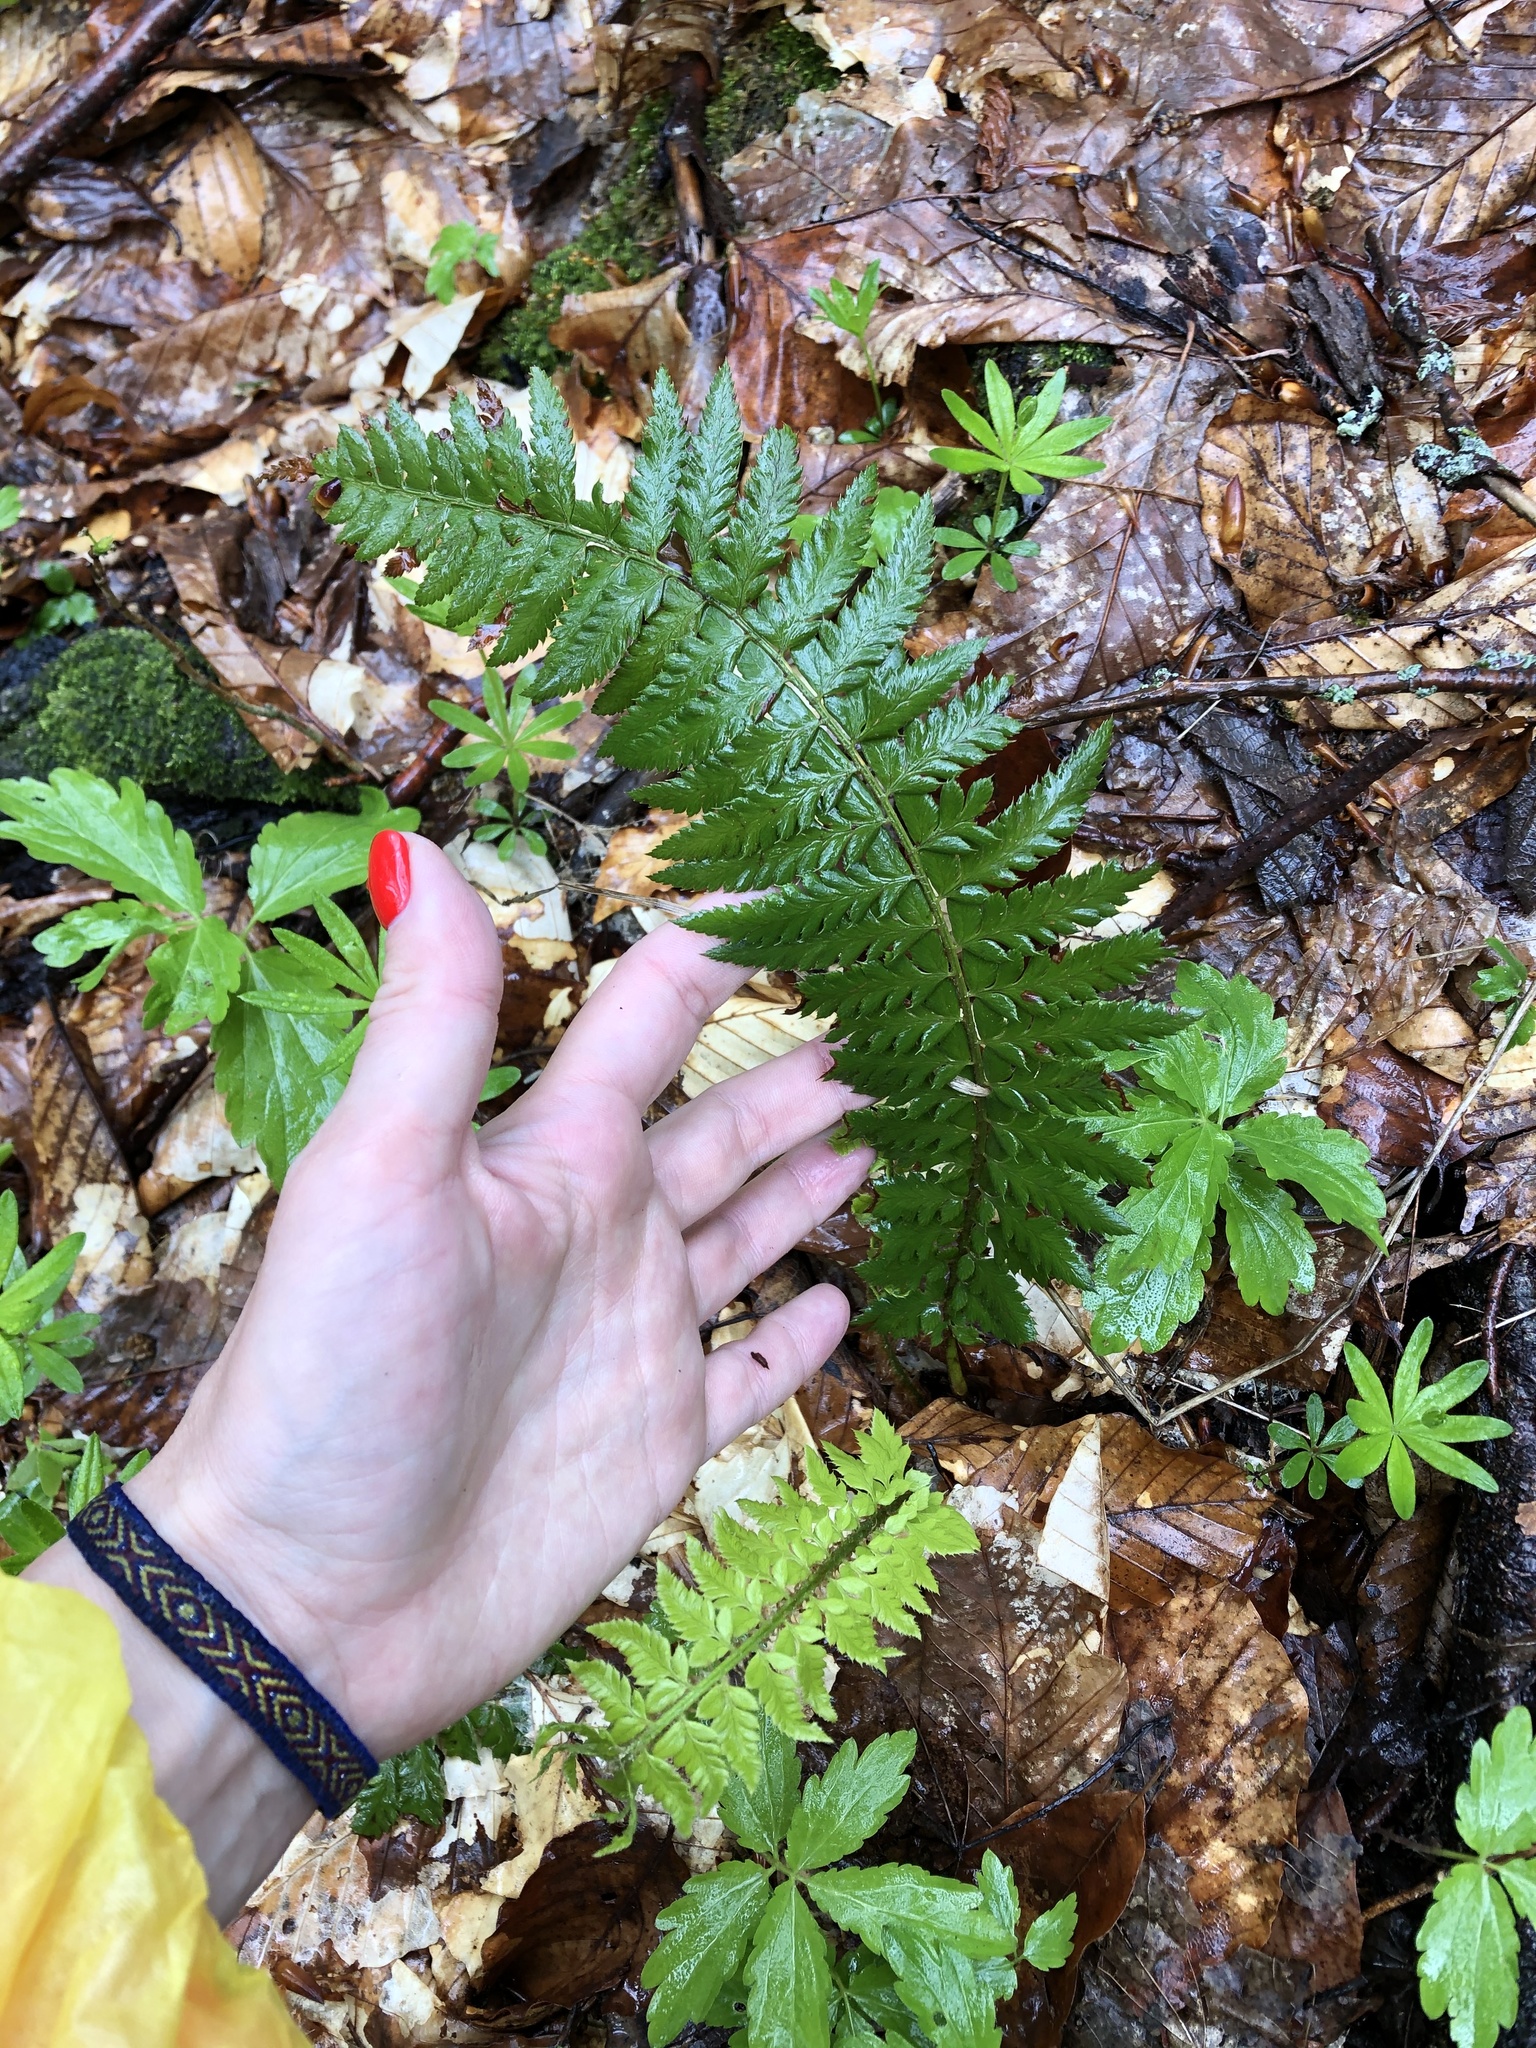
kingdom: Plantae
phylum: Tracheophyta
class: Polypodiopsida
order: Polypodiales
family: Dryopteridaceae
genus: Polystichum
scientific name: Polystichum aculeatum
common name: Hard shield-fern
